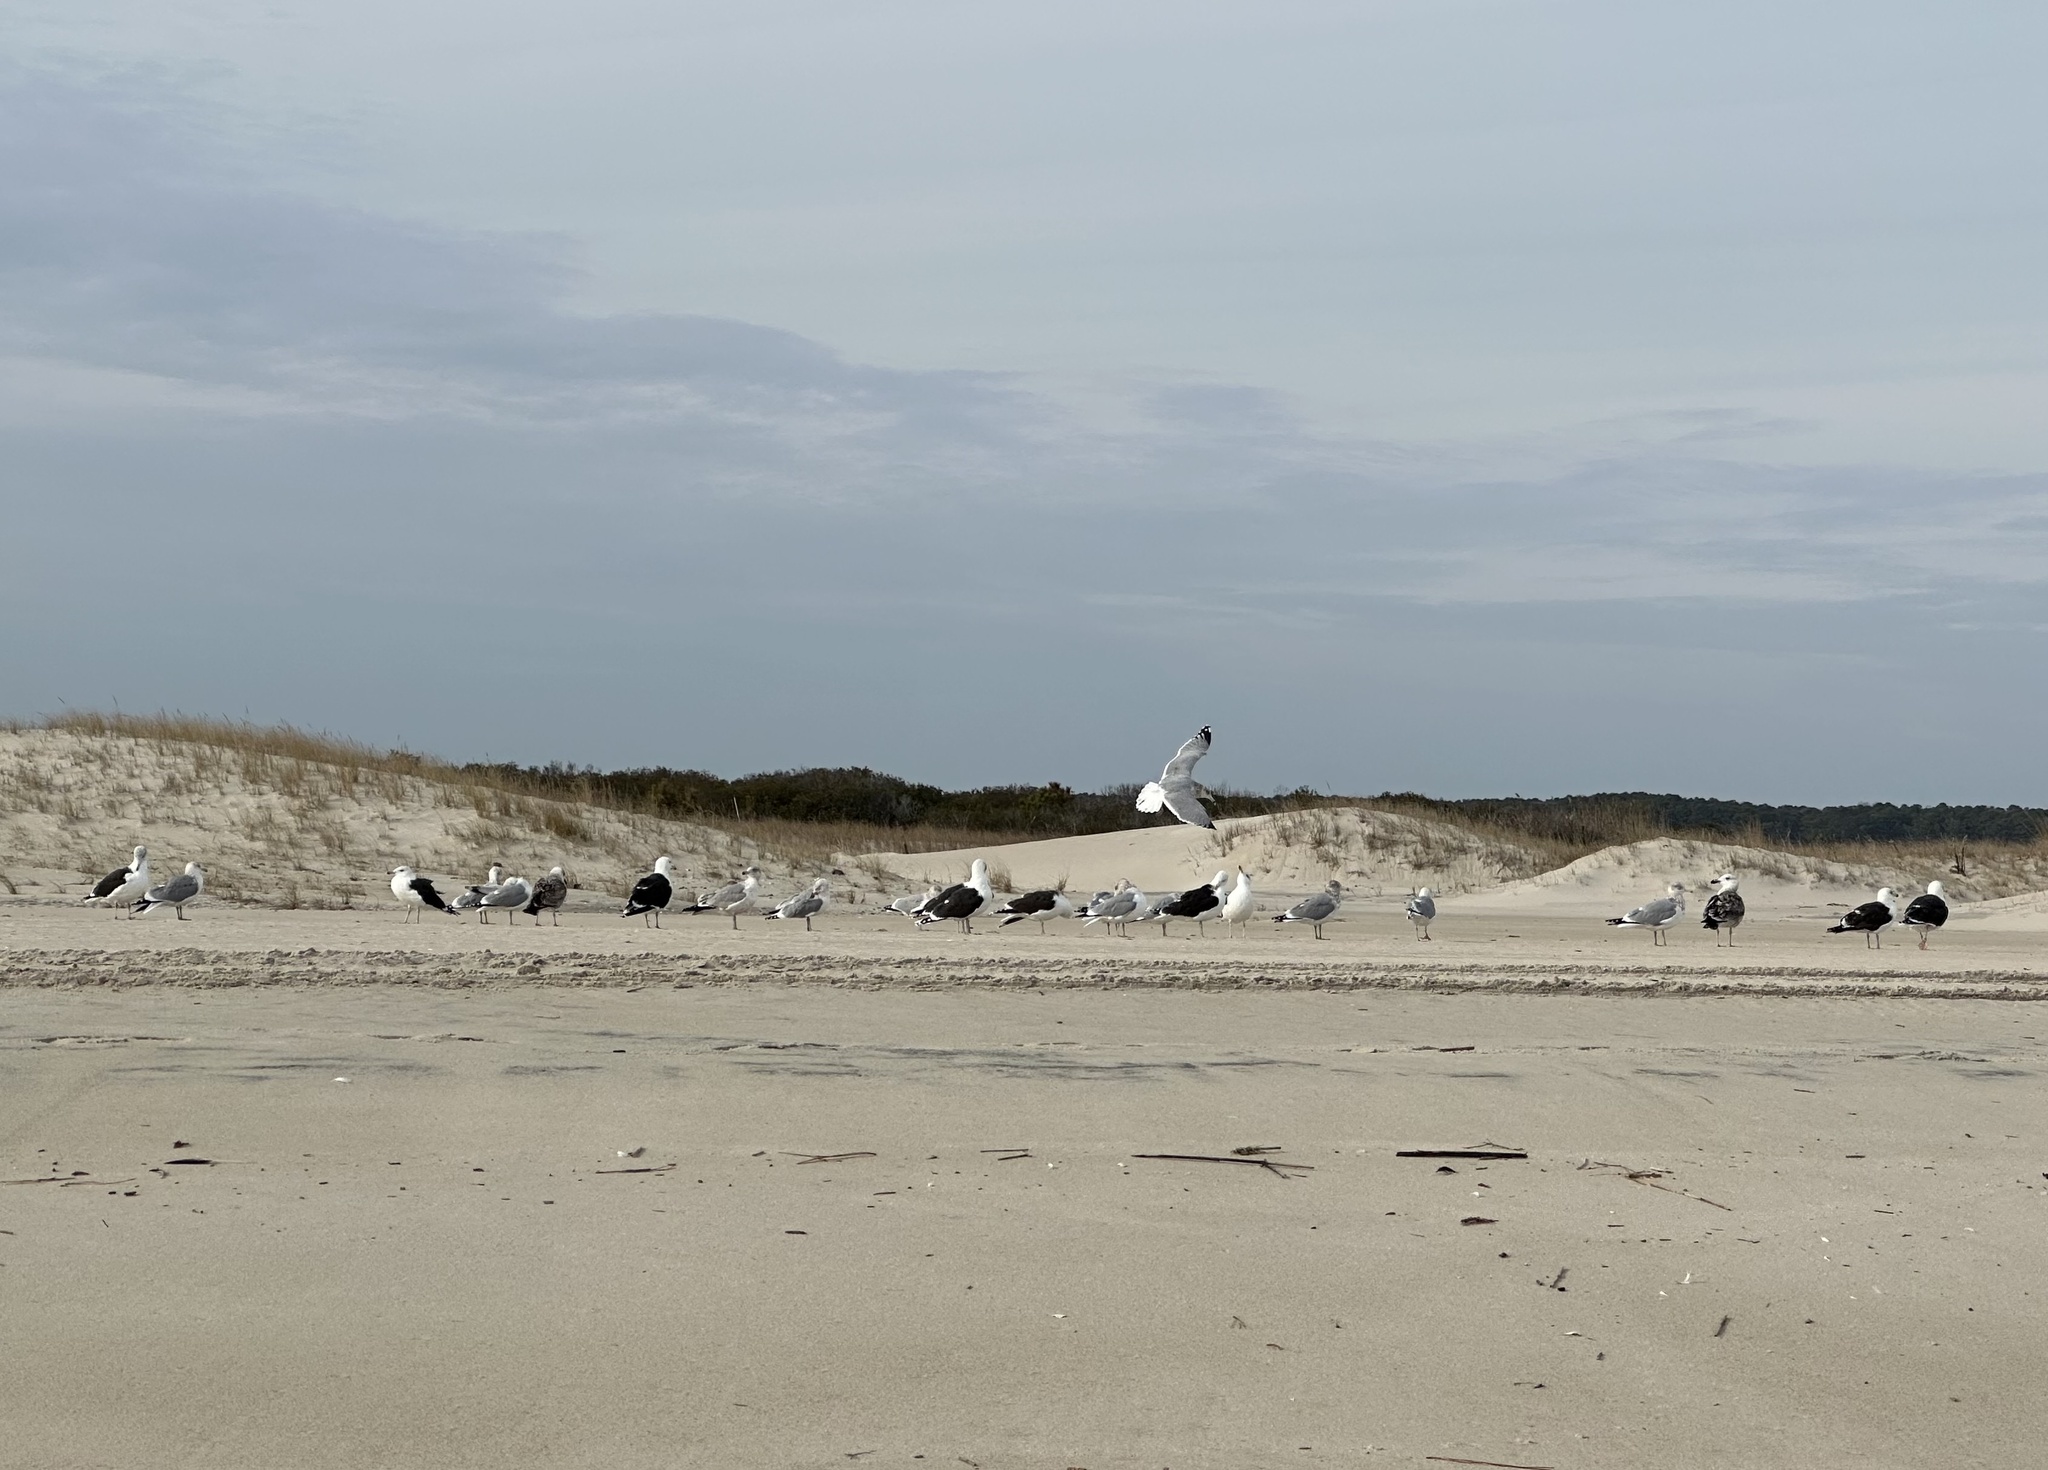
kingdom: Animalia
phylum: Chordata
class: Aves
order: Charadriiformes
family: Laridae
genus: Larus
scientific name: Larus marinus
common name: Great black-backed gull
